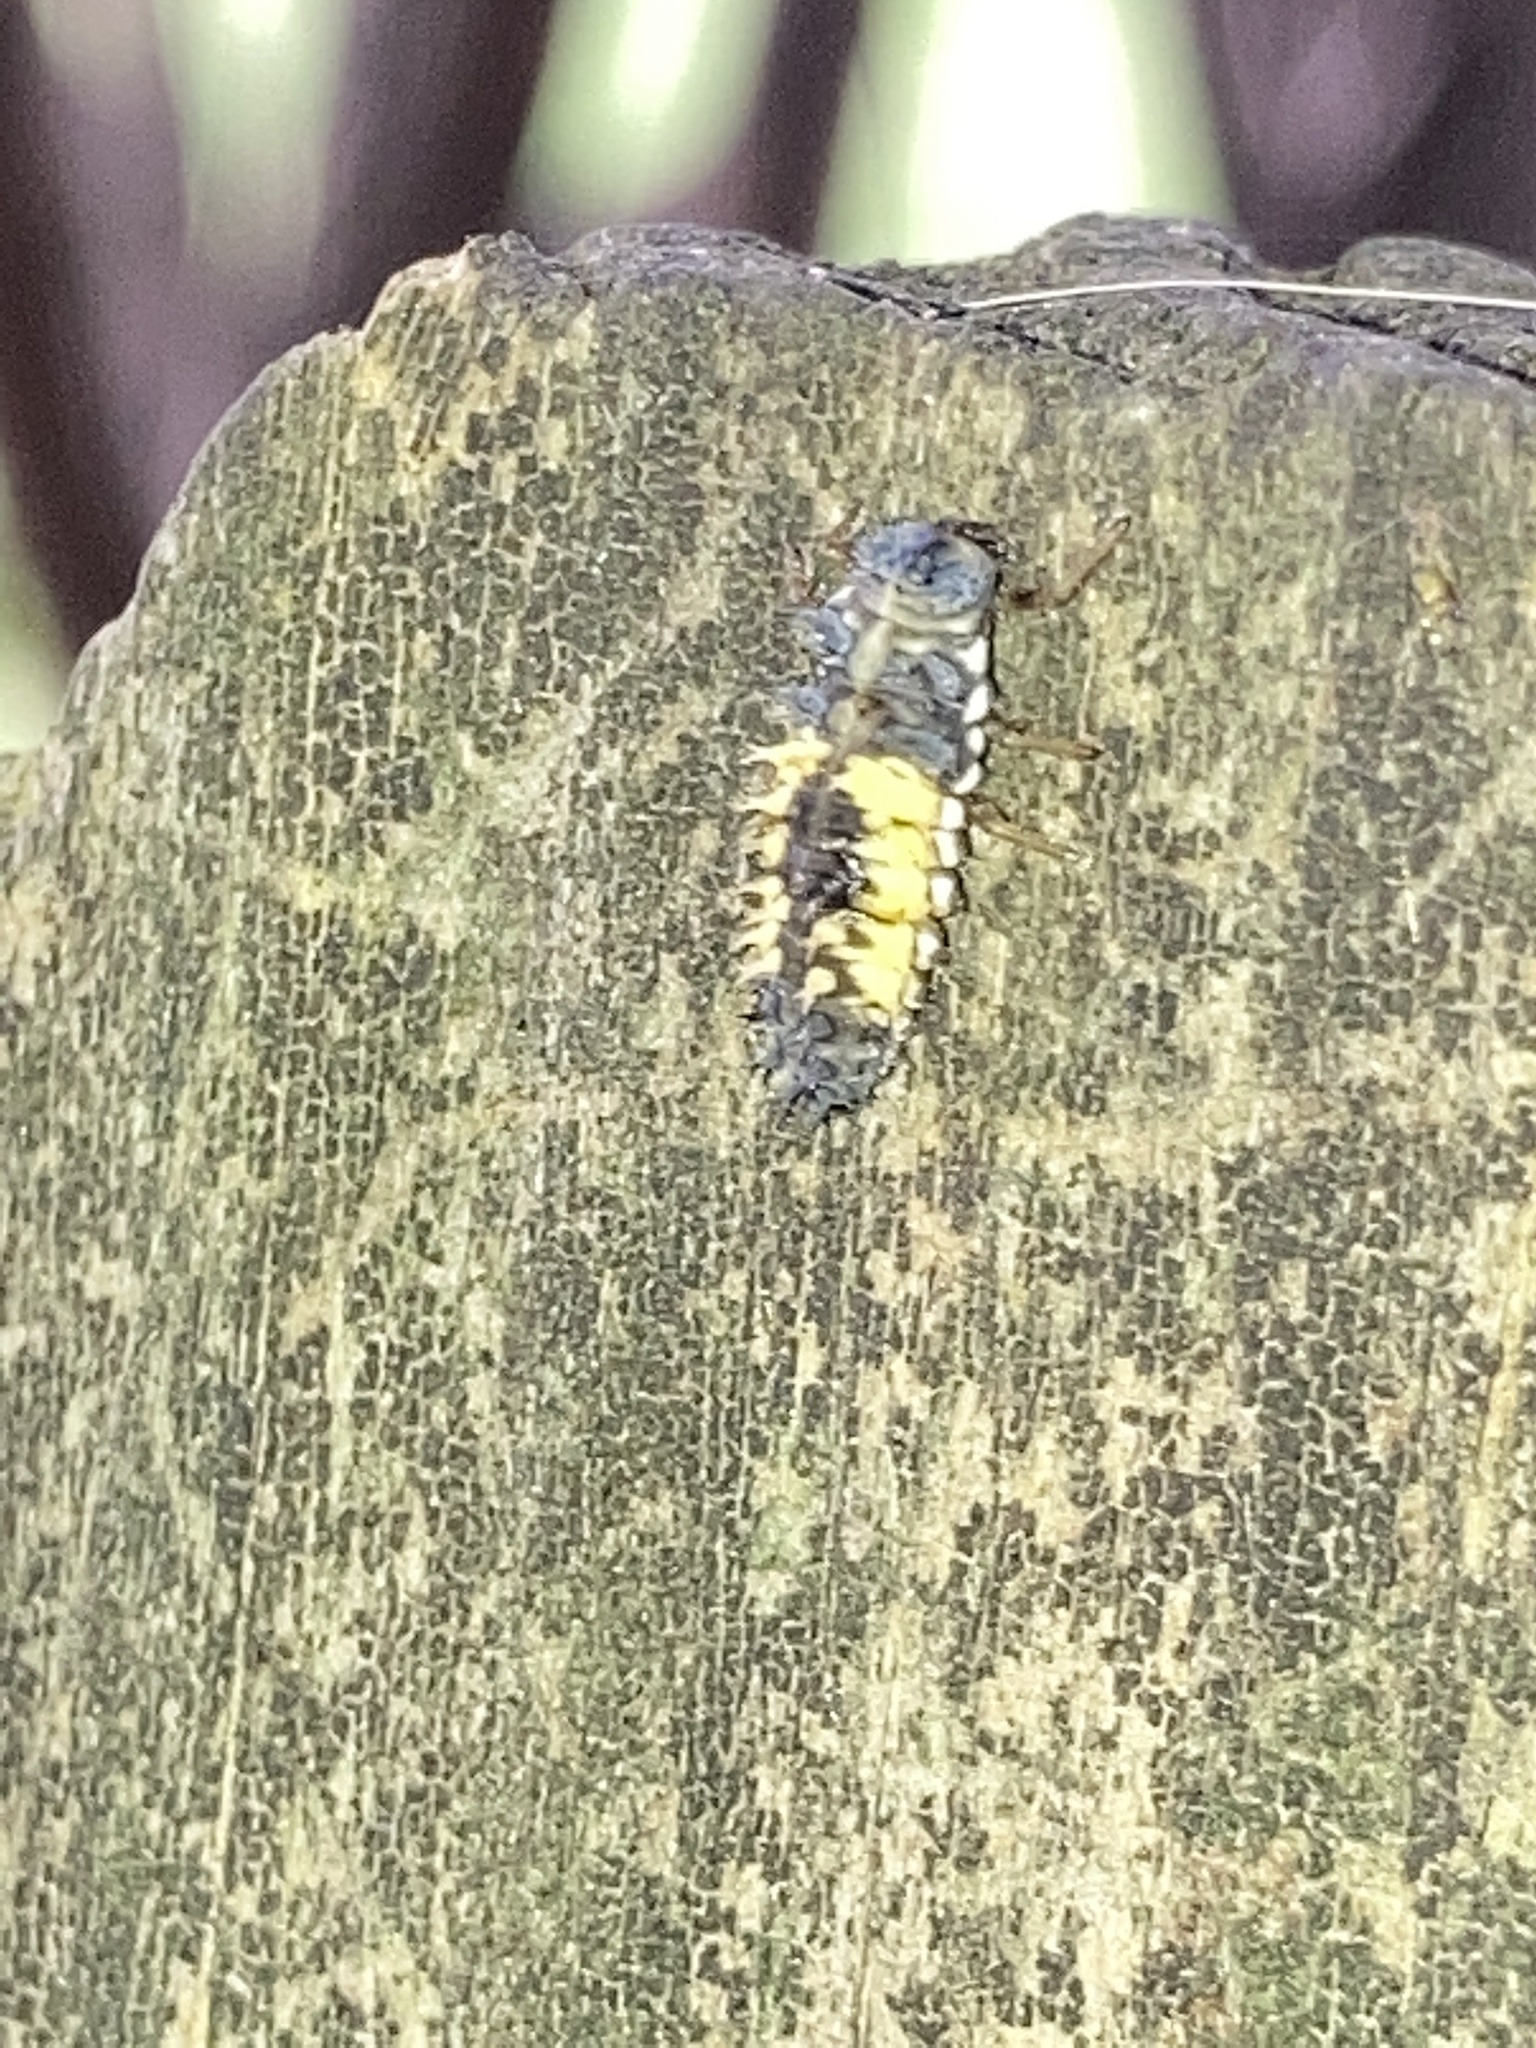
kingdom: Animalia
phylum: Arthropoda
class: Insecta
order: Coleoptera
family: Coccinellidae
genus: Harmonia
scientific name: Harmonia axyridis
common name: Harlequin ladybird
